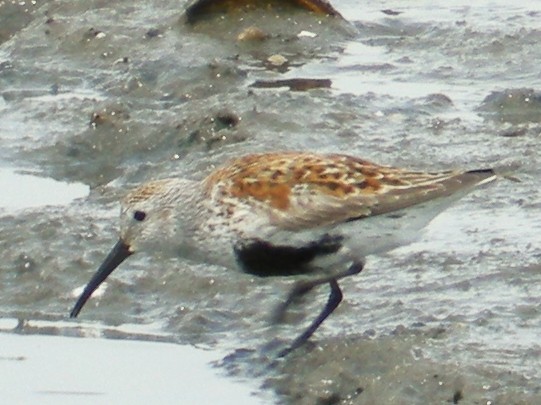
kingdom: Animalia
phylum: Chordata
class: Aves
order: Charadriiformes
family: Scolopacidae
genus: Calidris
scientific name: Calidris alpina
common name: Dunlin
